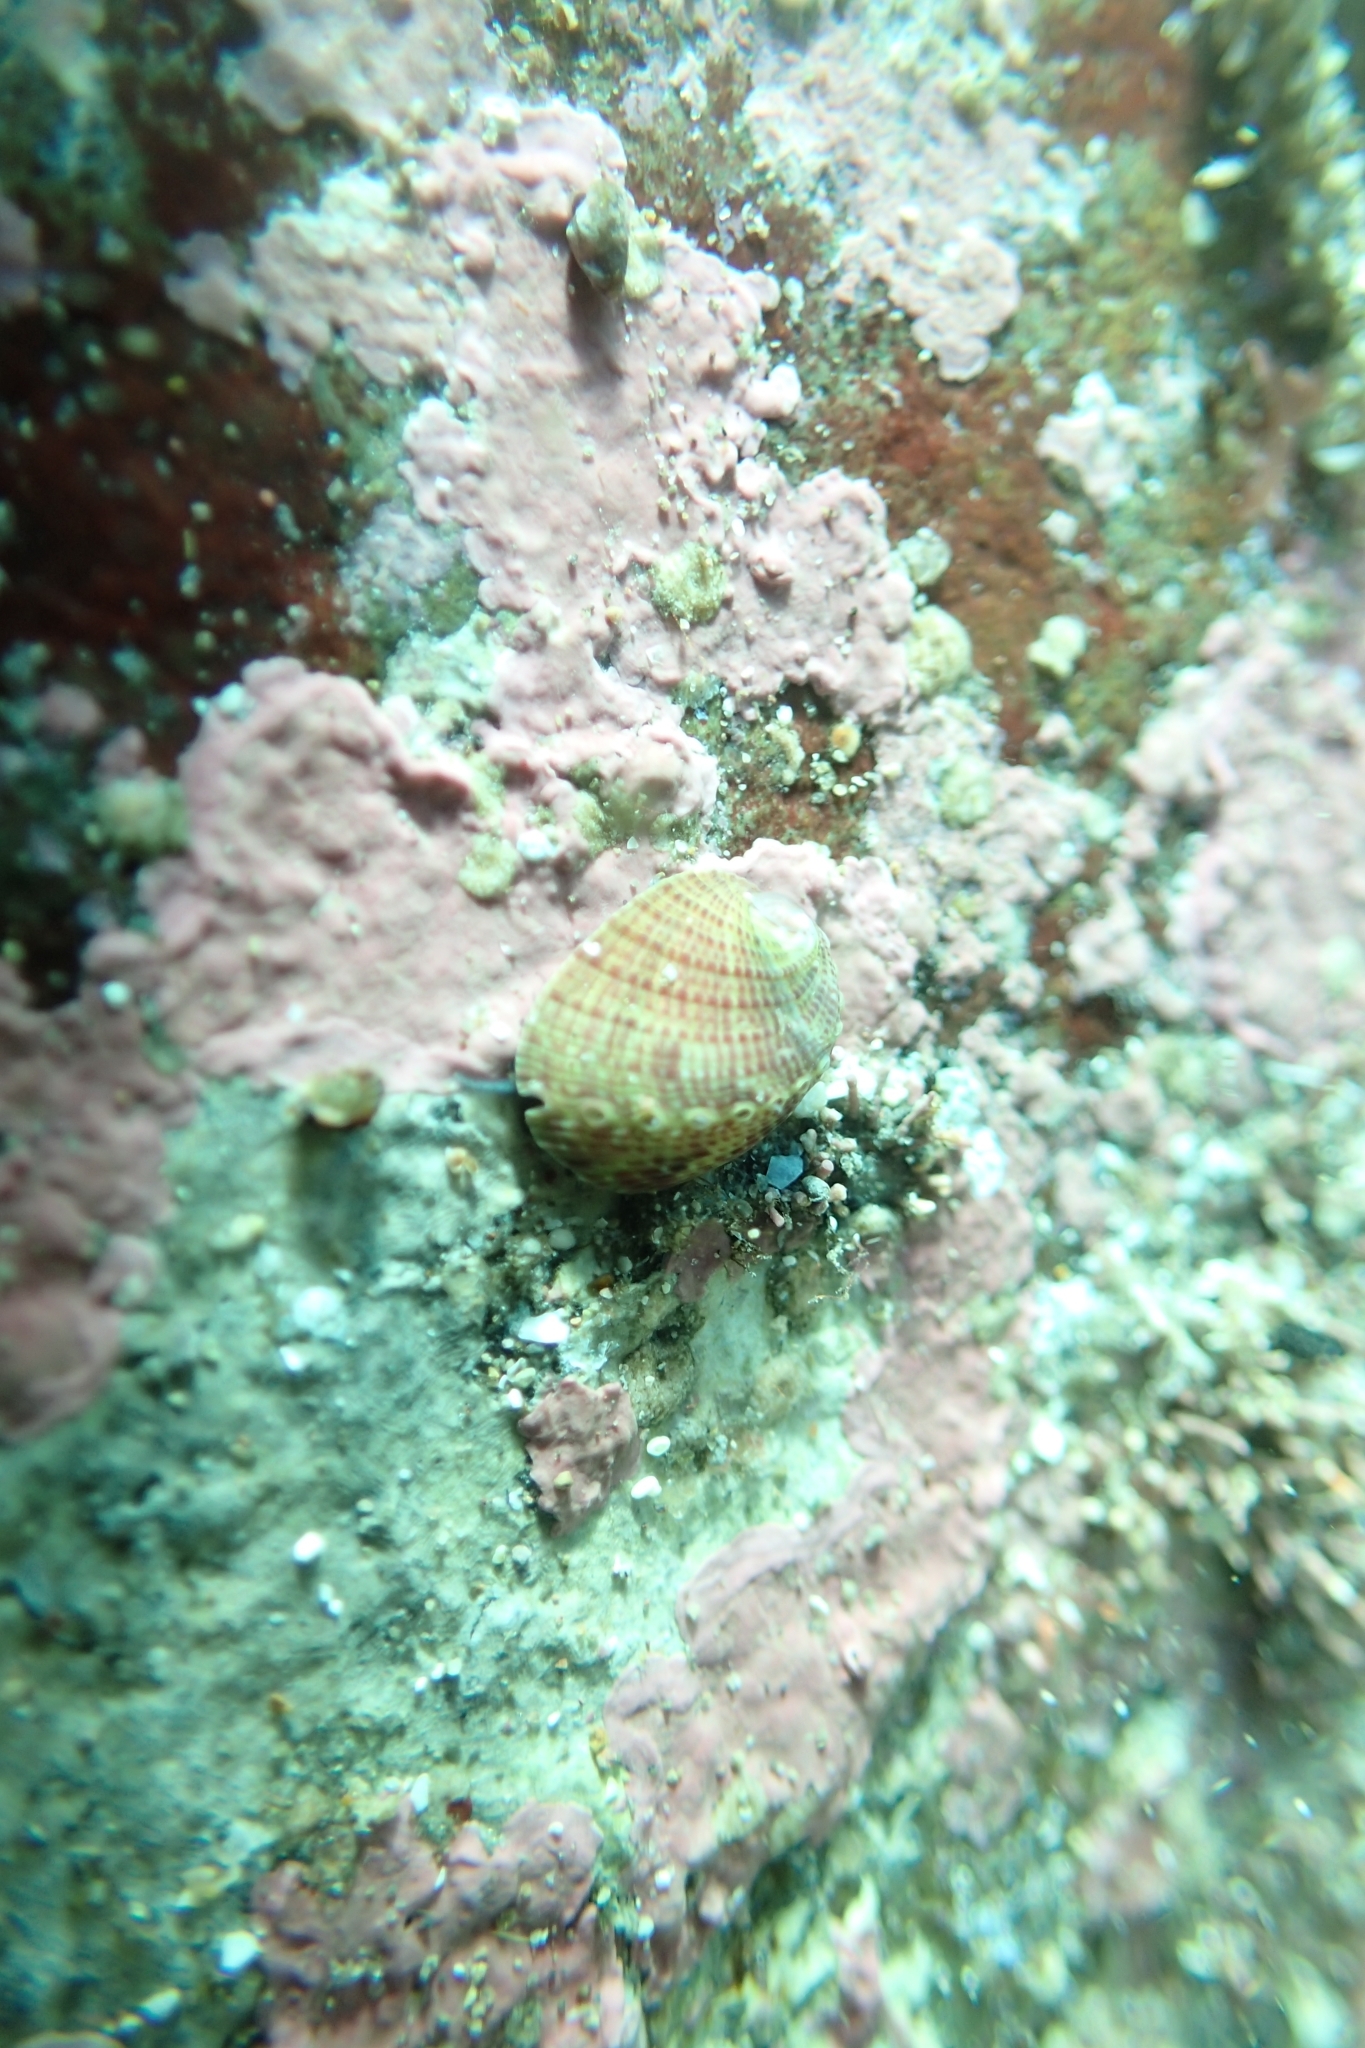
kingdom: Animalia
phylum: Mollusca
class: Gastropoda
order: Lepetellida
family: Haliotidae
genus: Haliotis
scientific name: Haliotis iris
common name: Abalone
